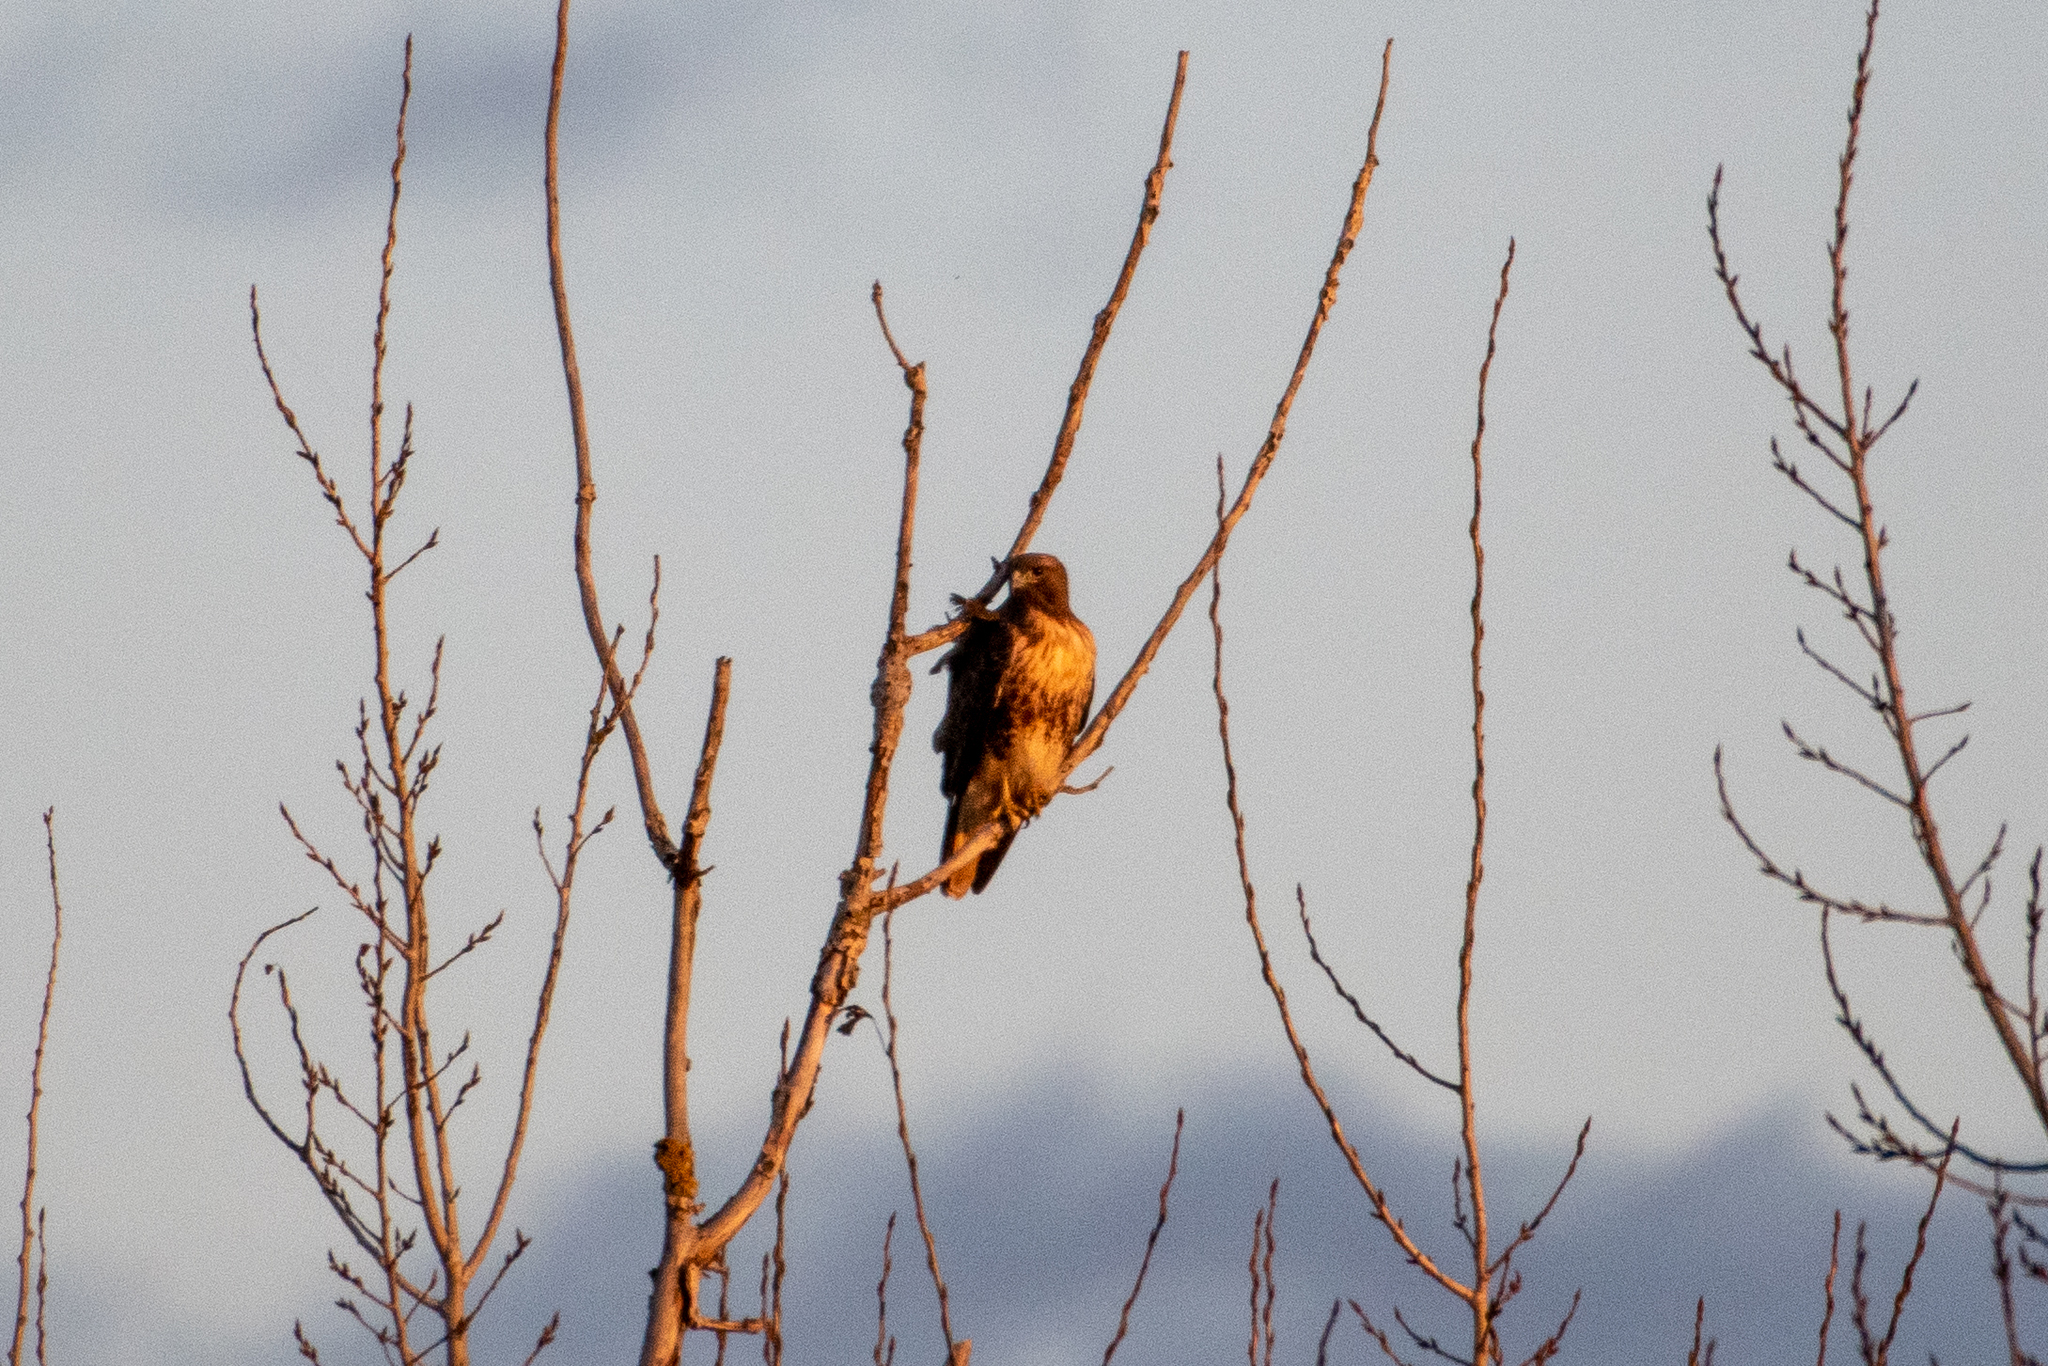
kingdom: Animalia
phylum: Chordata
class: Aves
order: Accipitriformes
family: Accipitridae
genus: Buteo
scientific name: Buteo jamaicensis
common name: Red-tailed hawk
